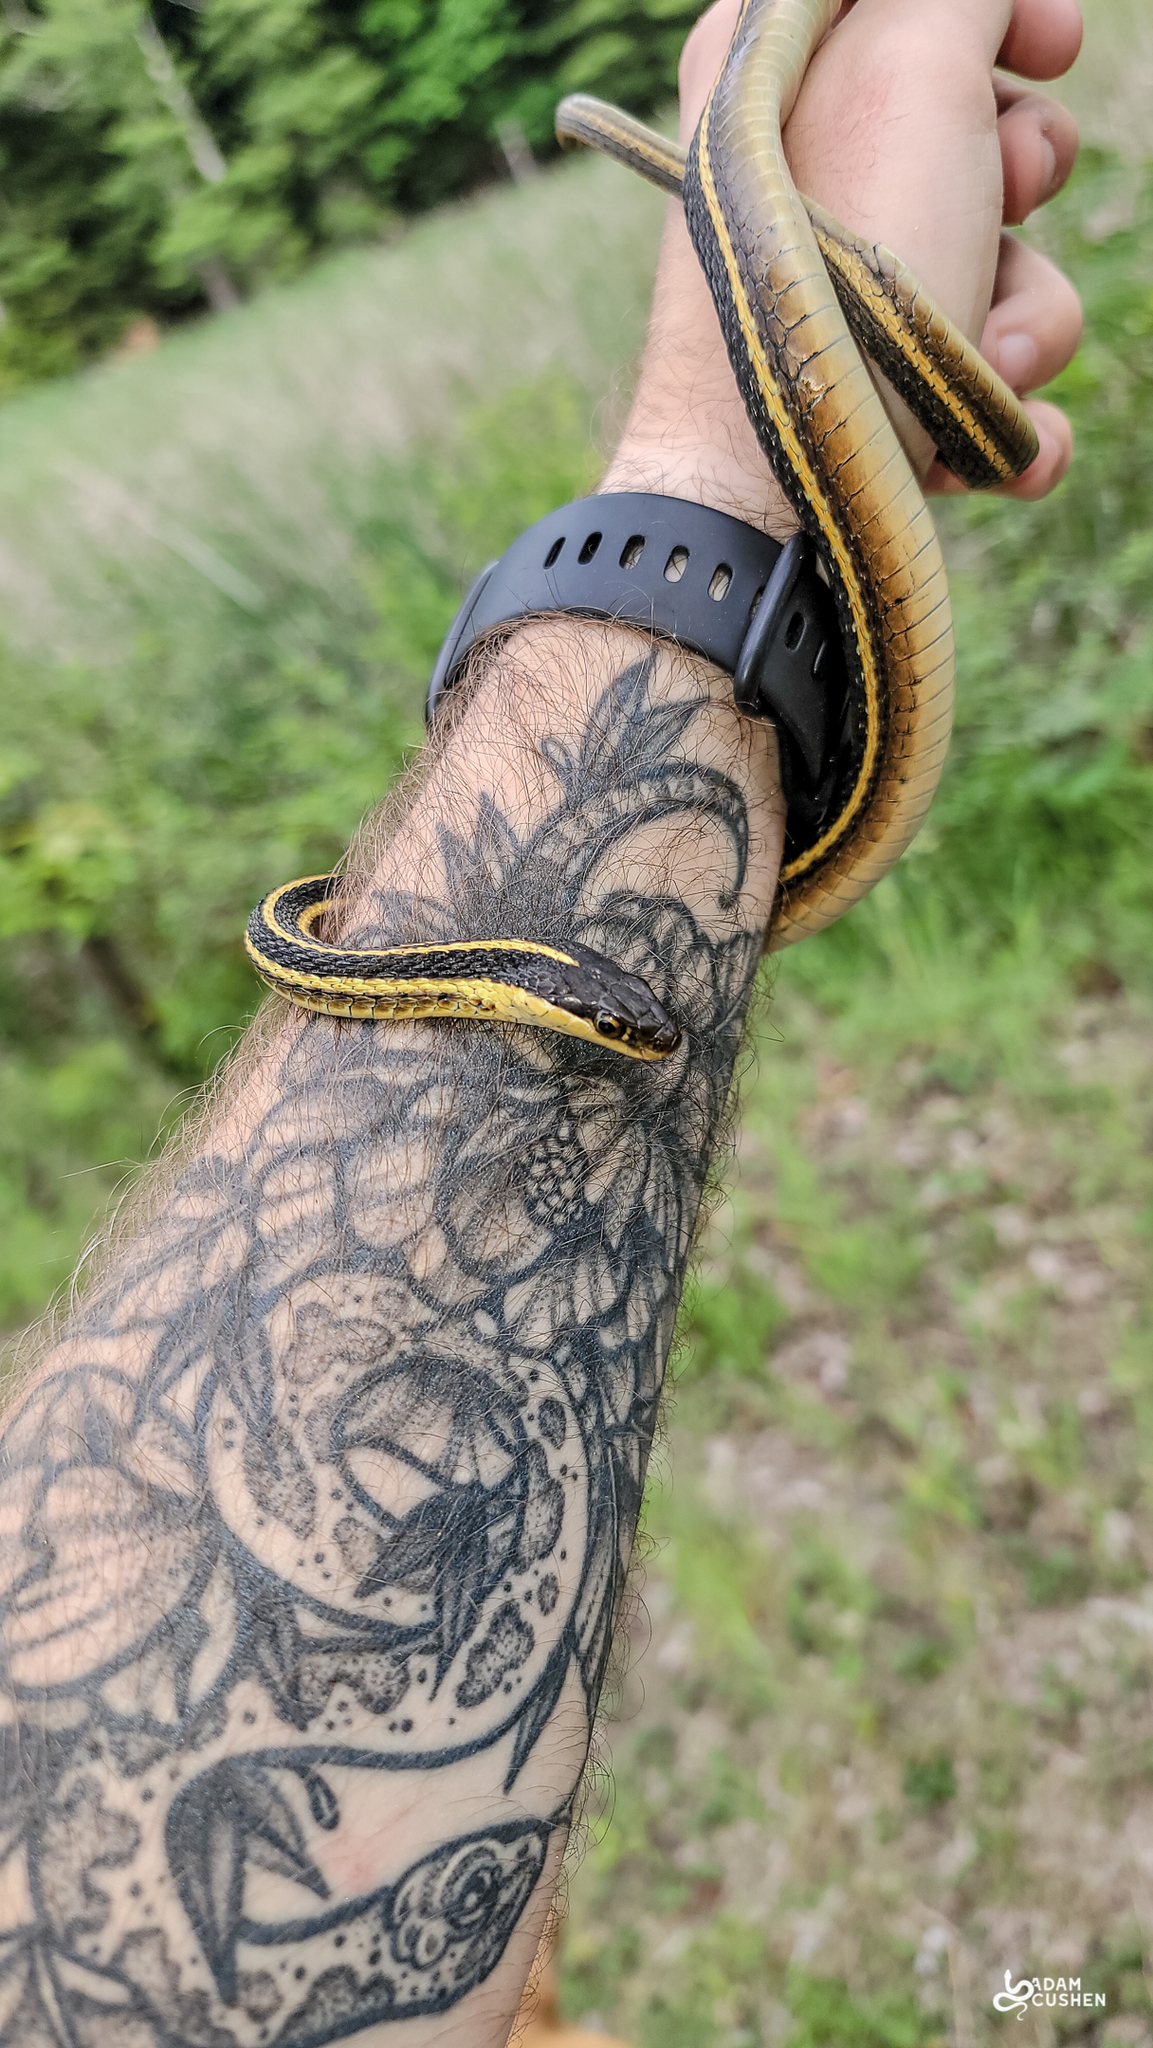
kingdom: Animalia
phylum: Chordata
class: Squamata
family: Colubridae
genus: Thamnophis
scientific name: Thamnophis saurita
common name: Eastern ribbonsnake
